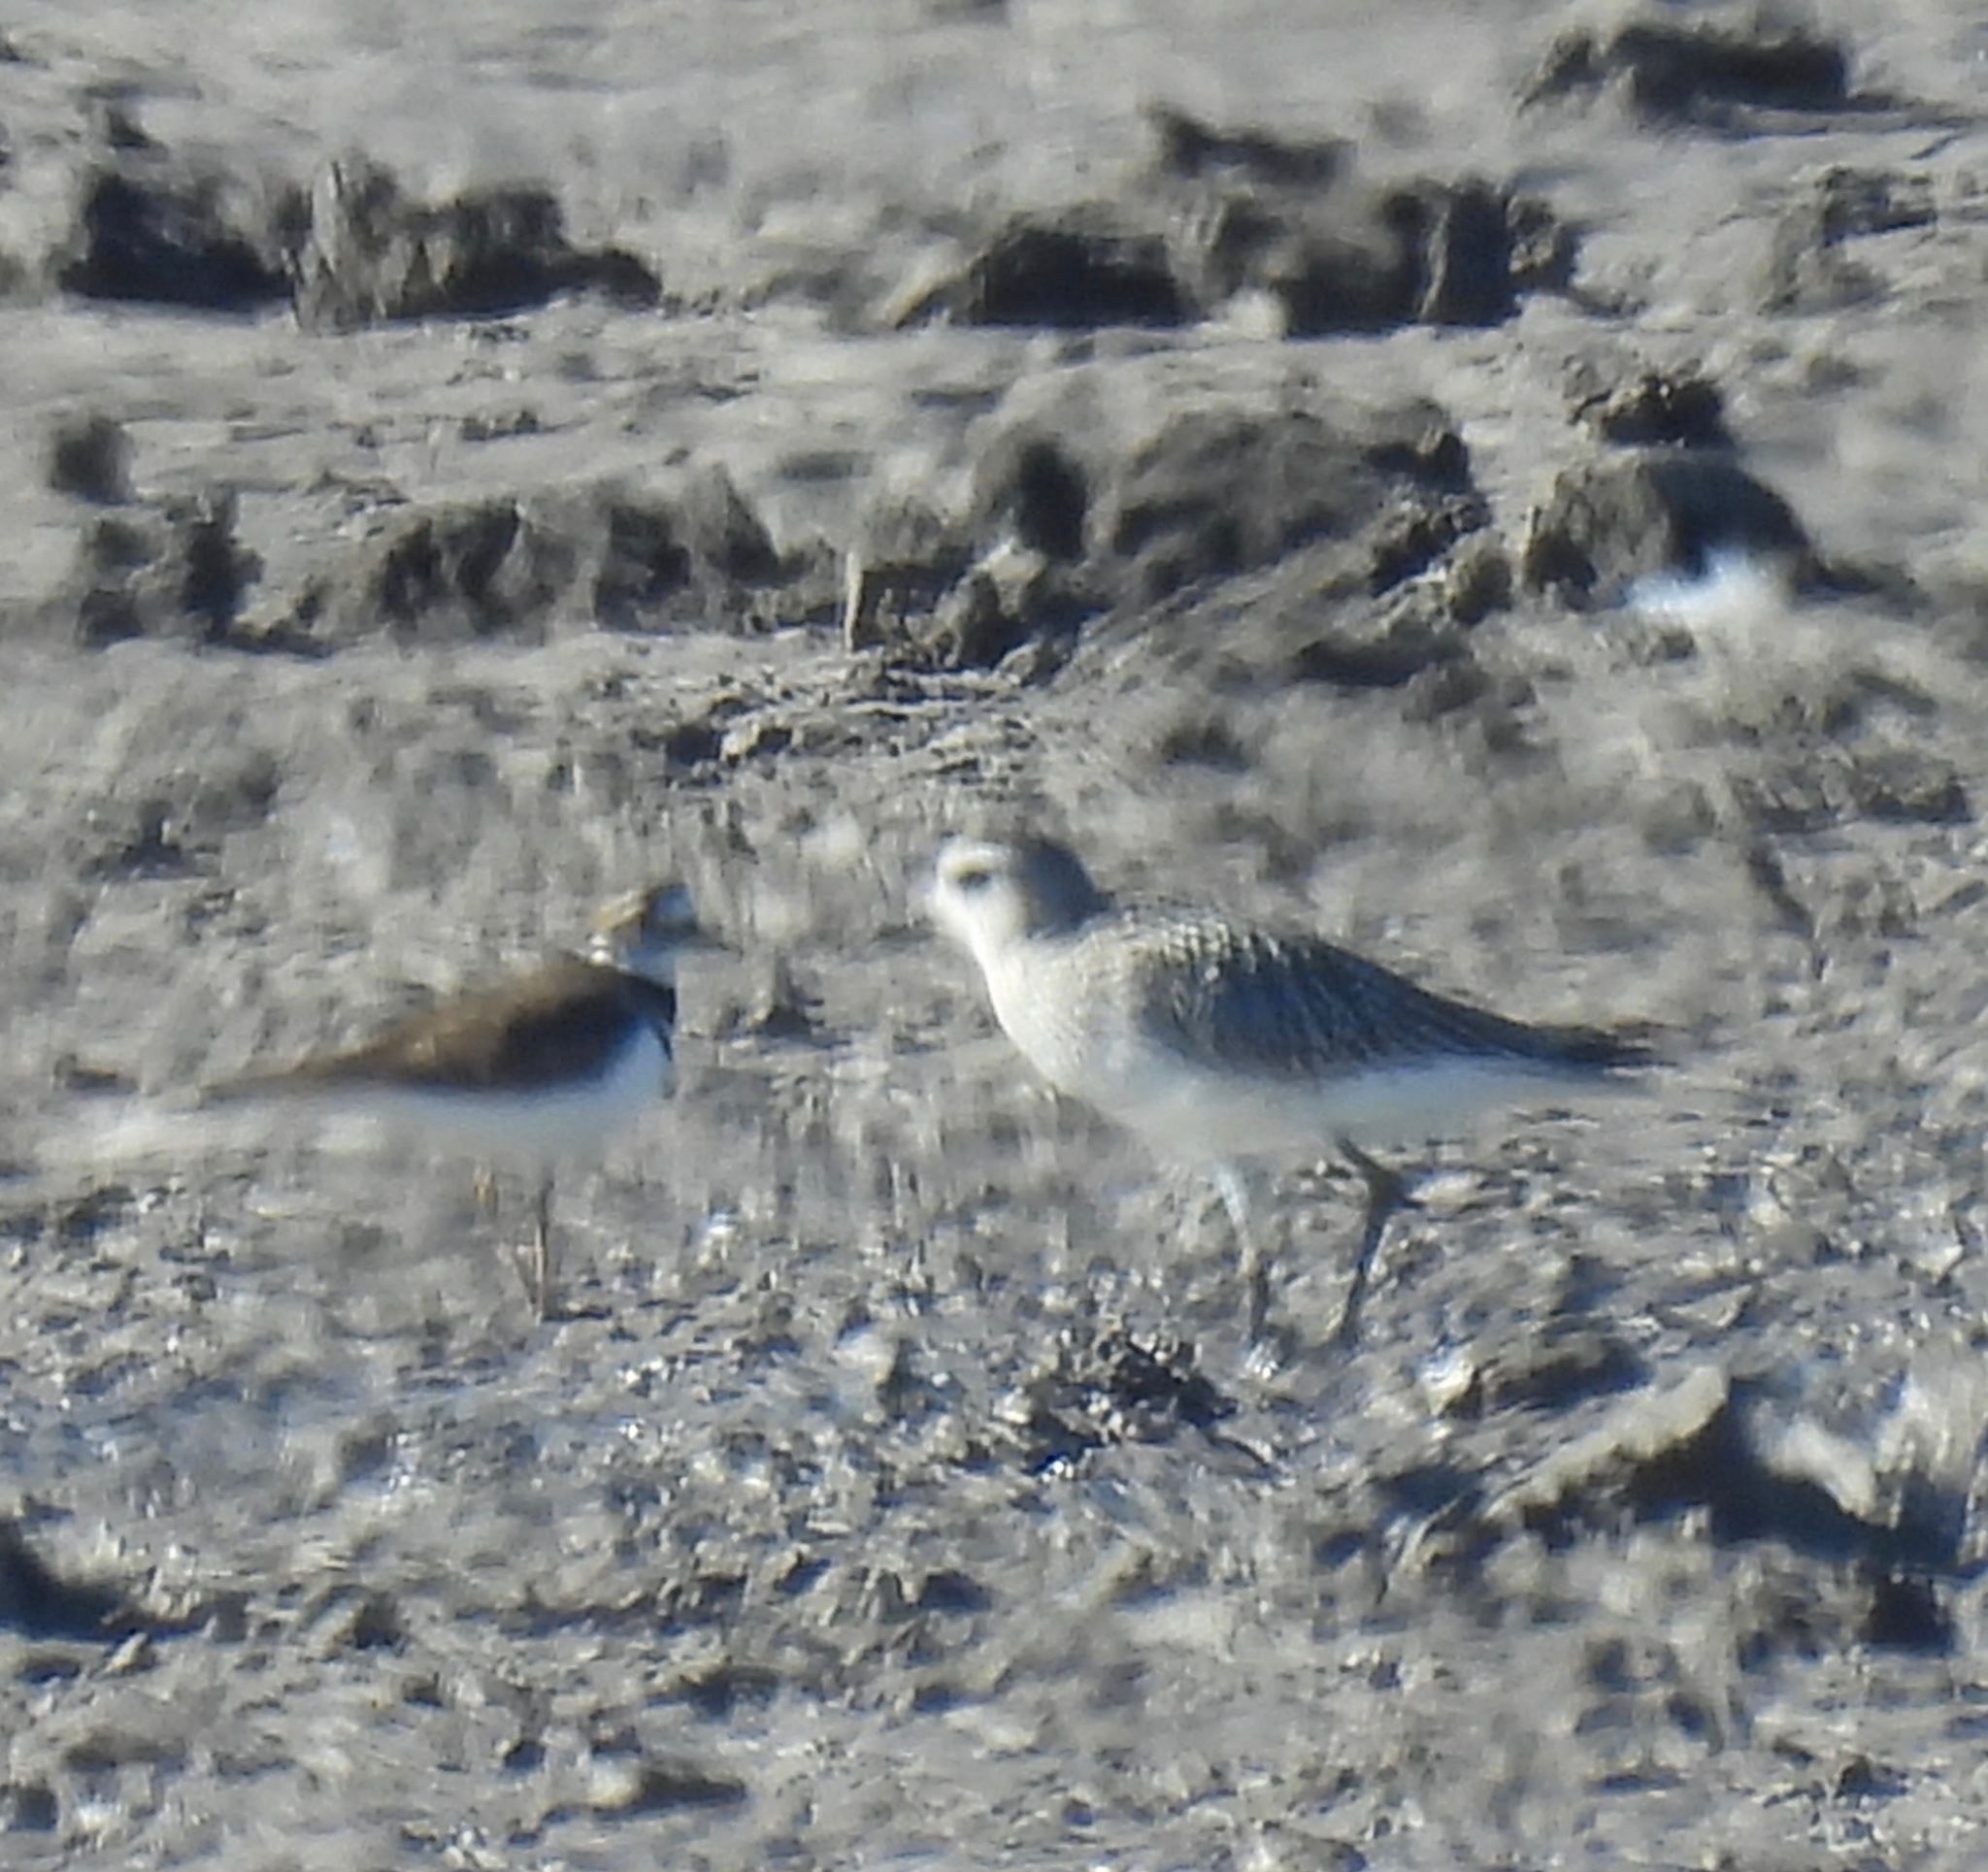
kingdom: Animalia
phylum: Chordata
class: Aves
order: Charadriiformes
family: Charadriidae
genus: Pluvialis
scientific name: Pluvialis squatarola
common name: Grey plover
